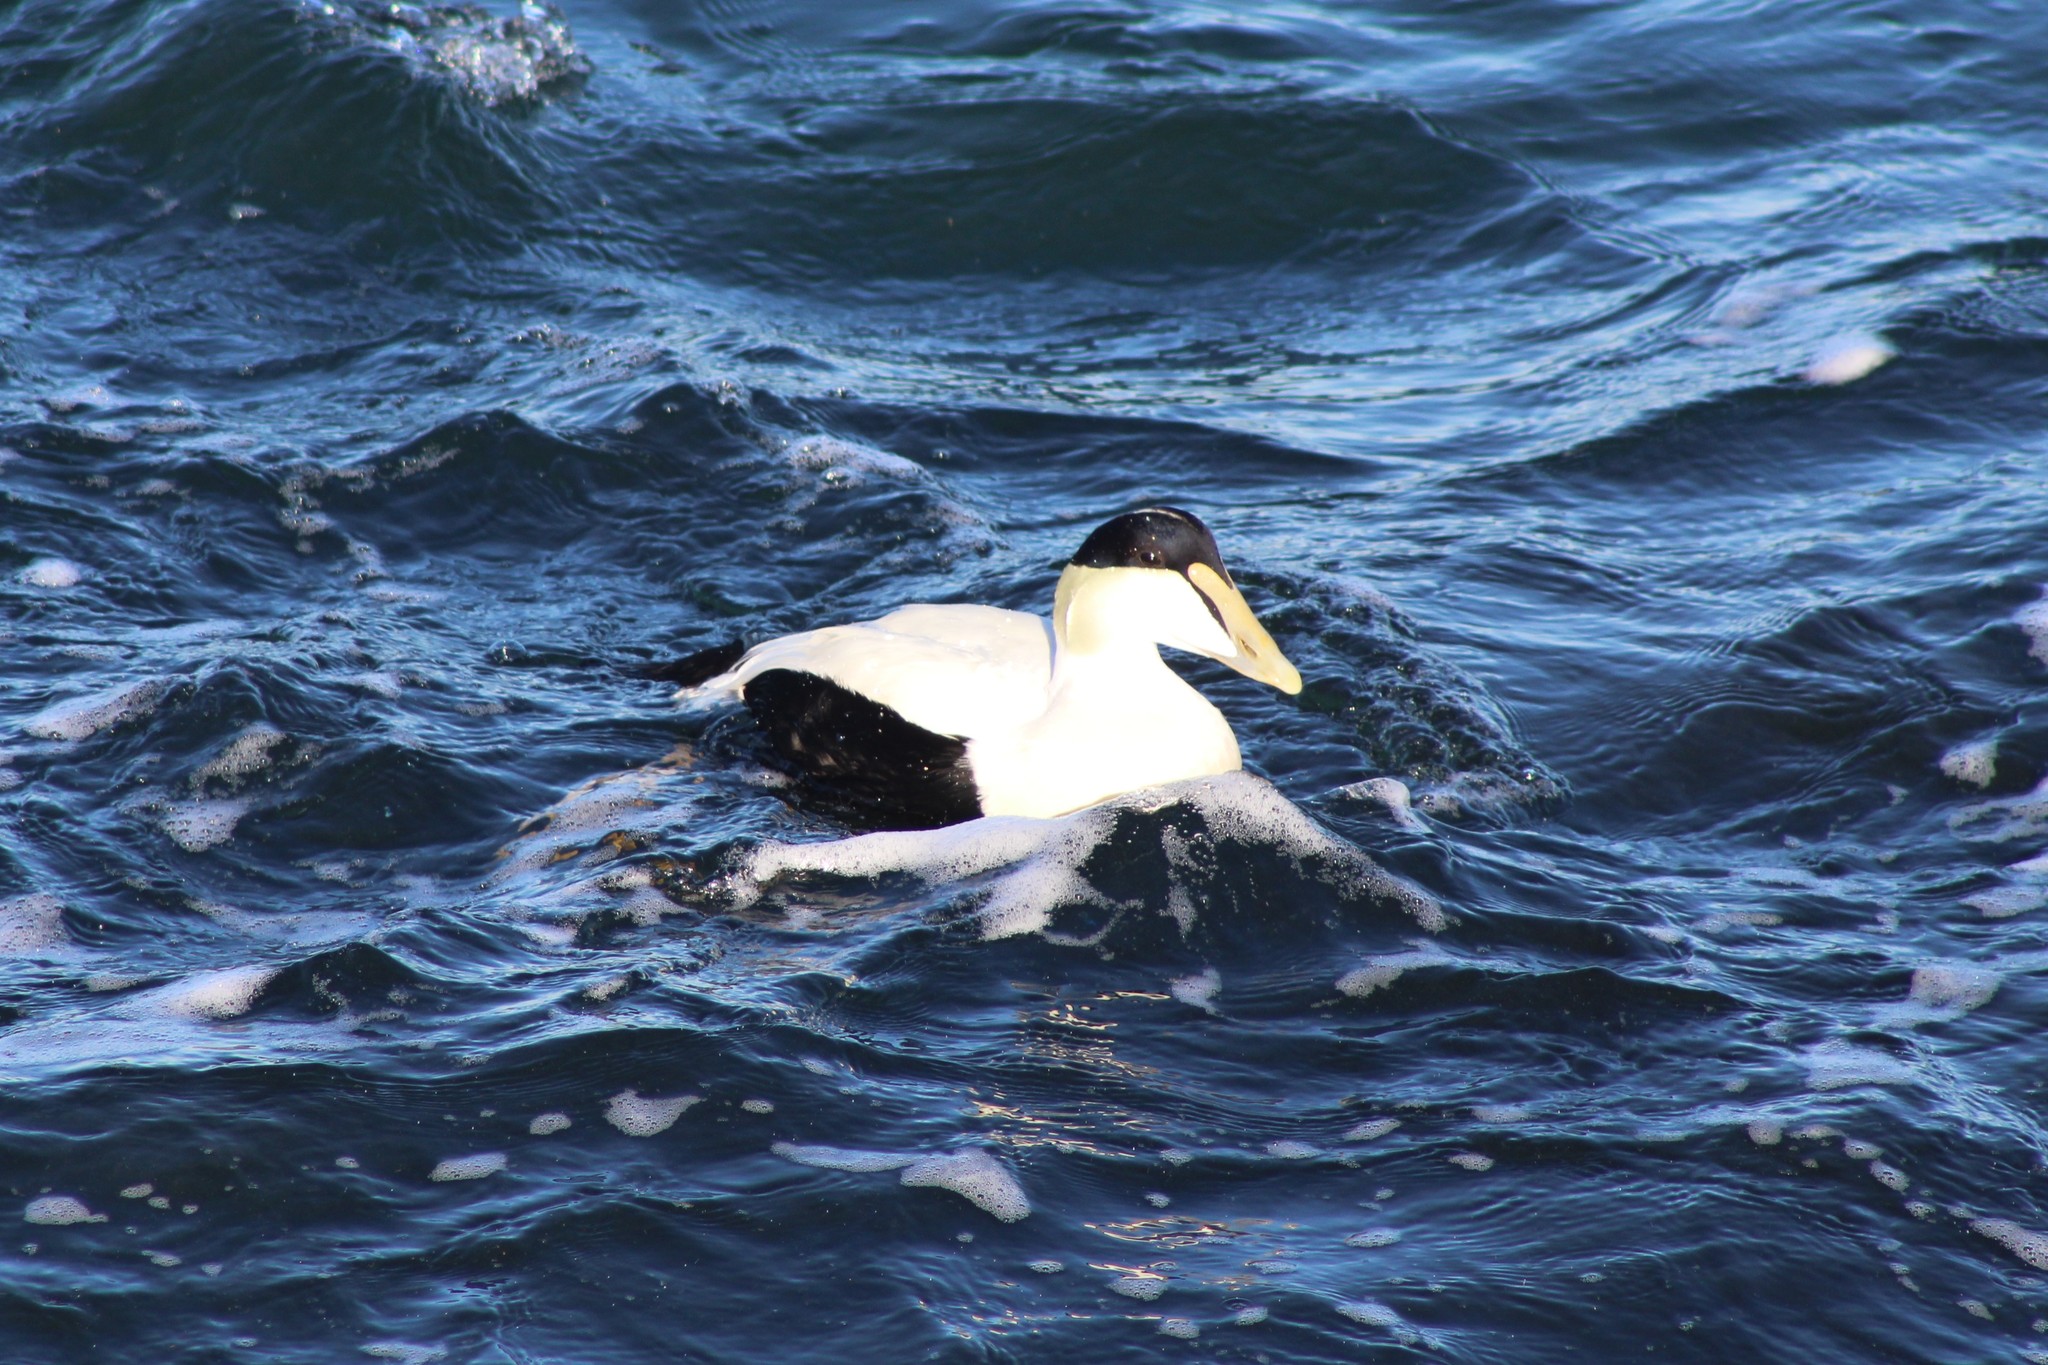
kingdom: Animalia
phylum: Chordata
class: Aves
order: Anseriformes
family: Anatidae
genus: Somateria
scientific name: Somateria mollissima
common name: Common eider
